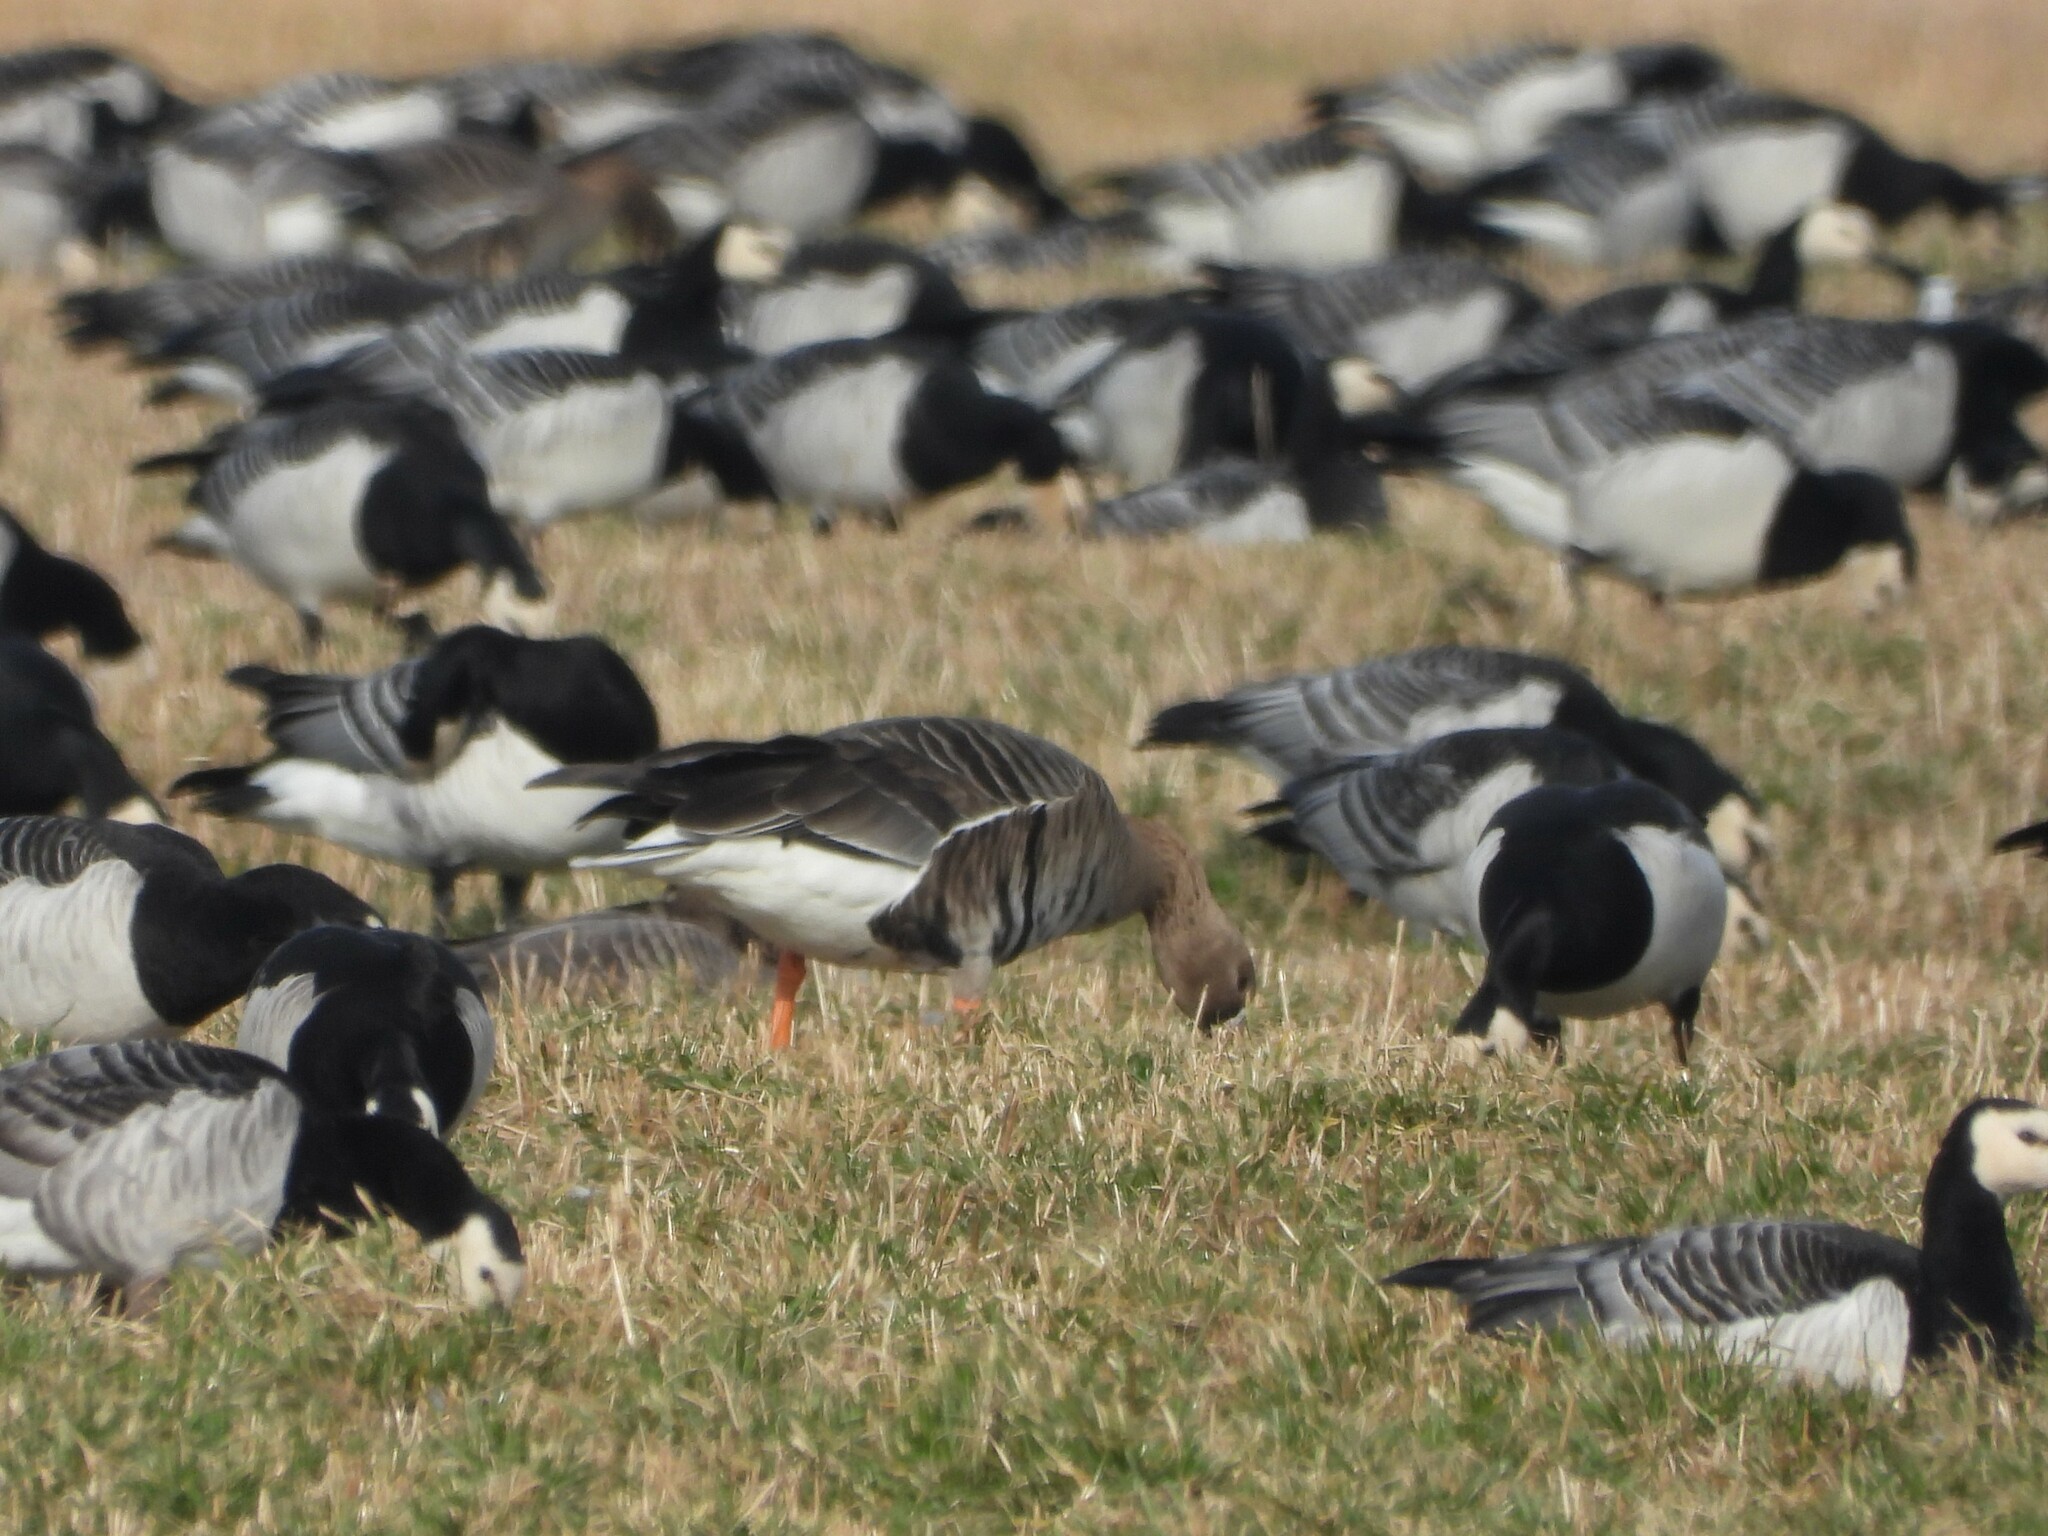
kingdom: Animalia
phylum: Chordata
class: Aves
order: Anseriformes
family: Anatidae
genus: Anser
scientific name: Anser albifrons
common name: Greater white-fronted goose
